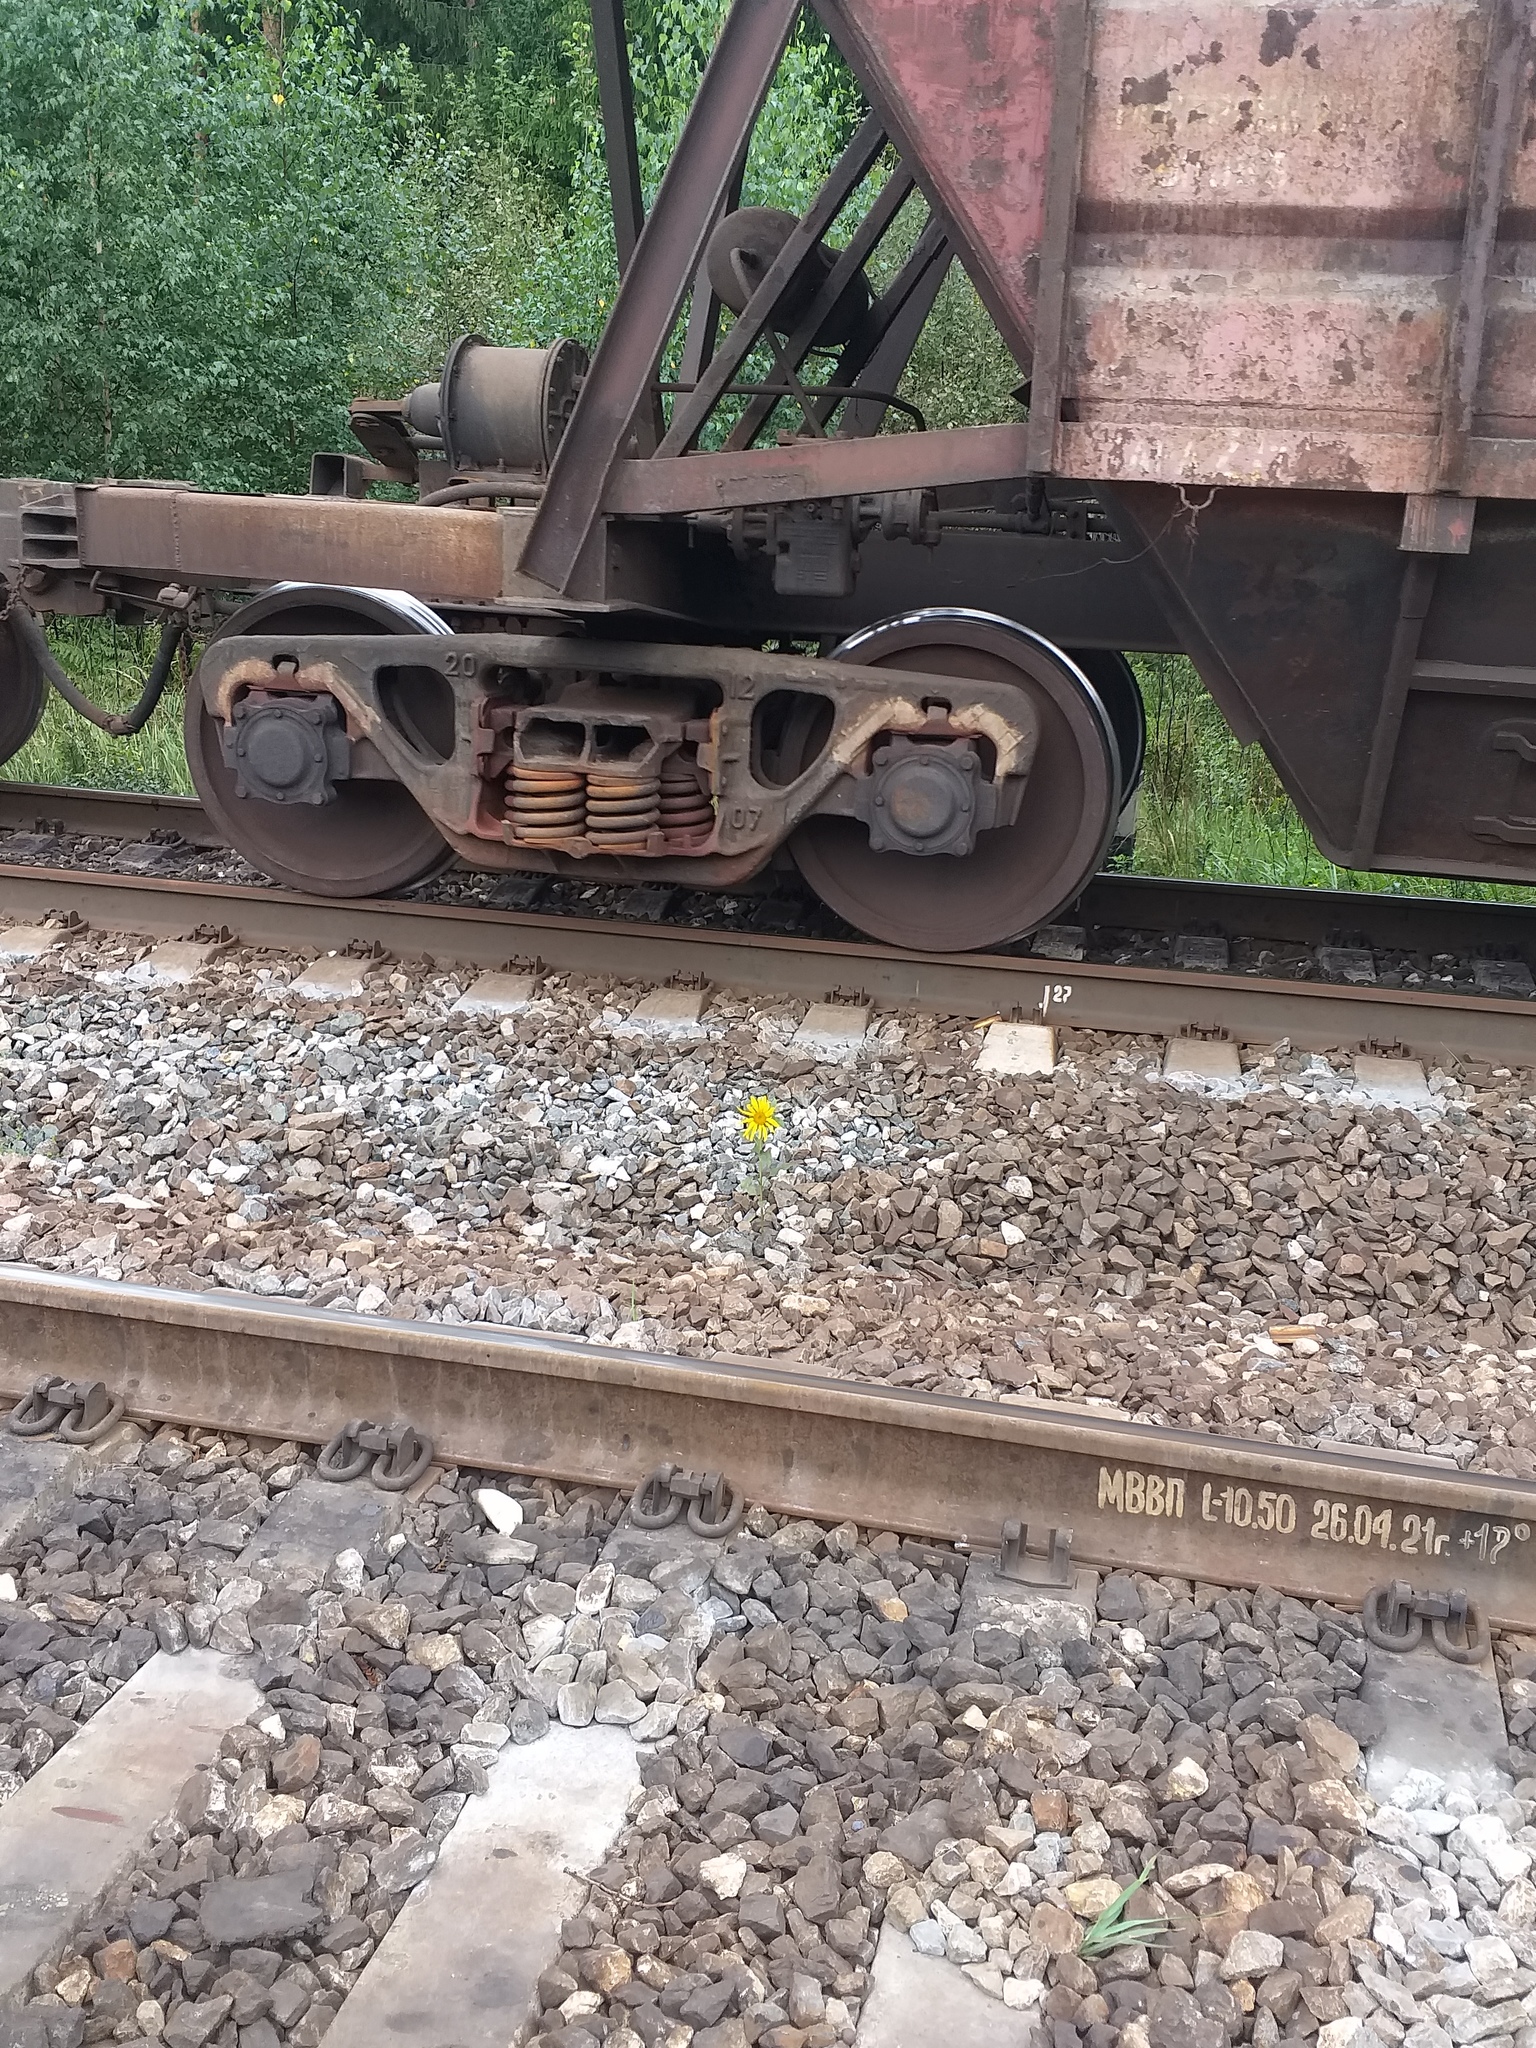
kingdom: Plantae
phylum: Tracheophyta
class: Magnoliopsida
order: Asterales
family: Asteraceae
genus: Helianthus
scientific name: Helianthus annuus
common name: Sunflower
